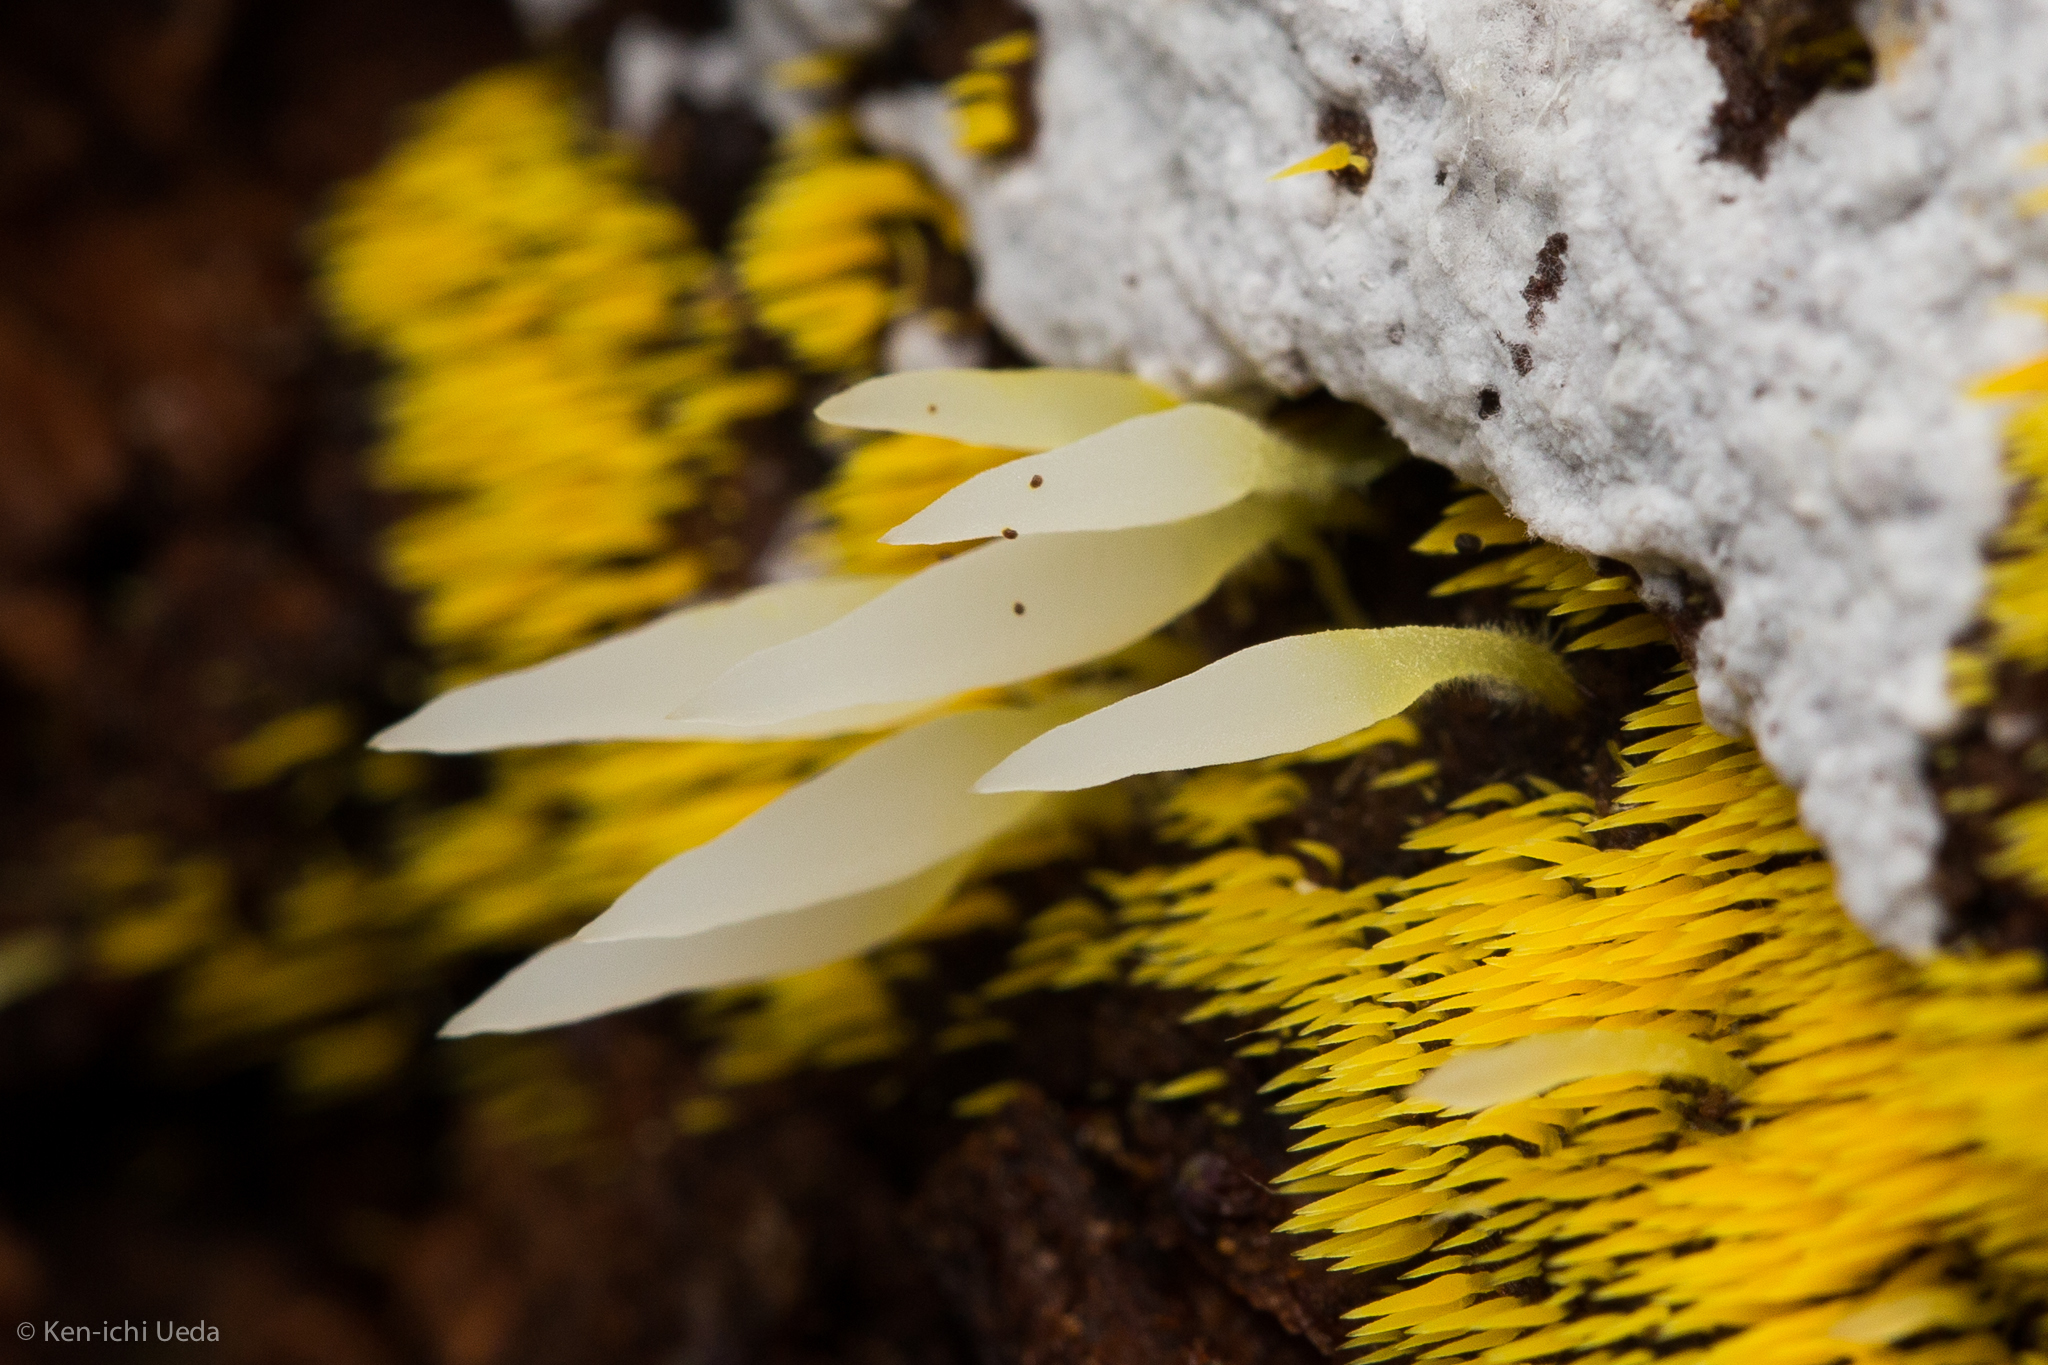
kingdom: Fungi
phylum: Basidiomycota
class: Agaricomycetes
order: Agaricales
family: Clavariaceae
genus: Mucronella
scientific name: Mucronella fusiformis
